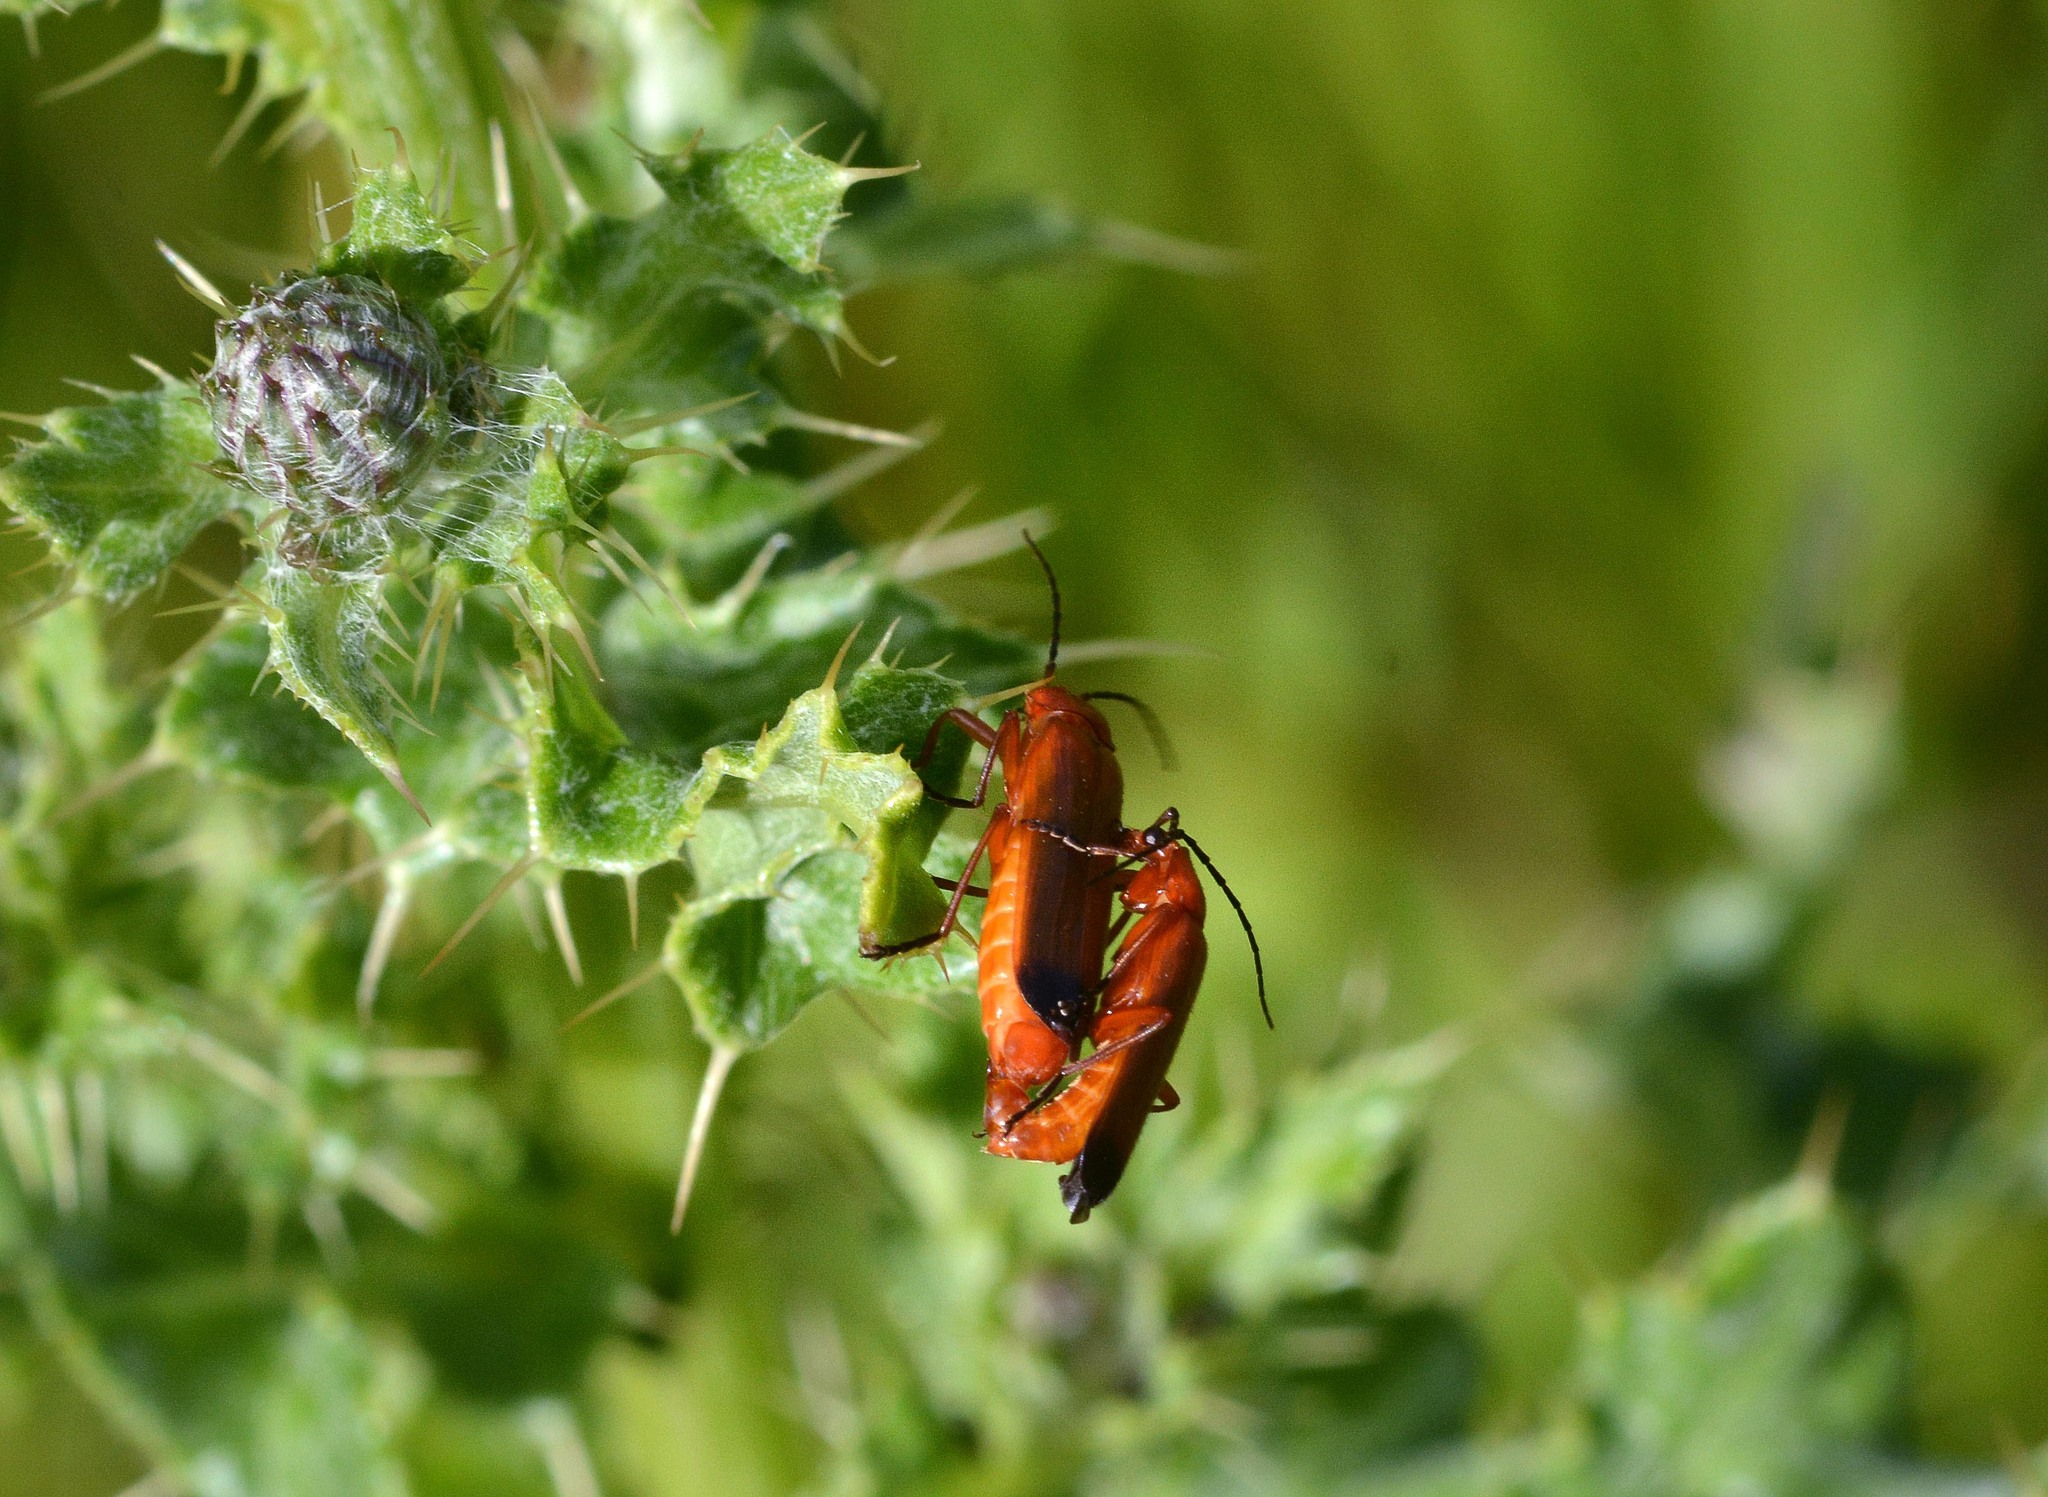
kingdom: Animalia
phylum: Arthropoda
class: Insecta
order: Coleoptera
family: Cantharidae
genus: Rhagonycha
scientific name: Rhagonycha fulva
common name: Common red soldier beetle
